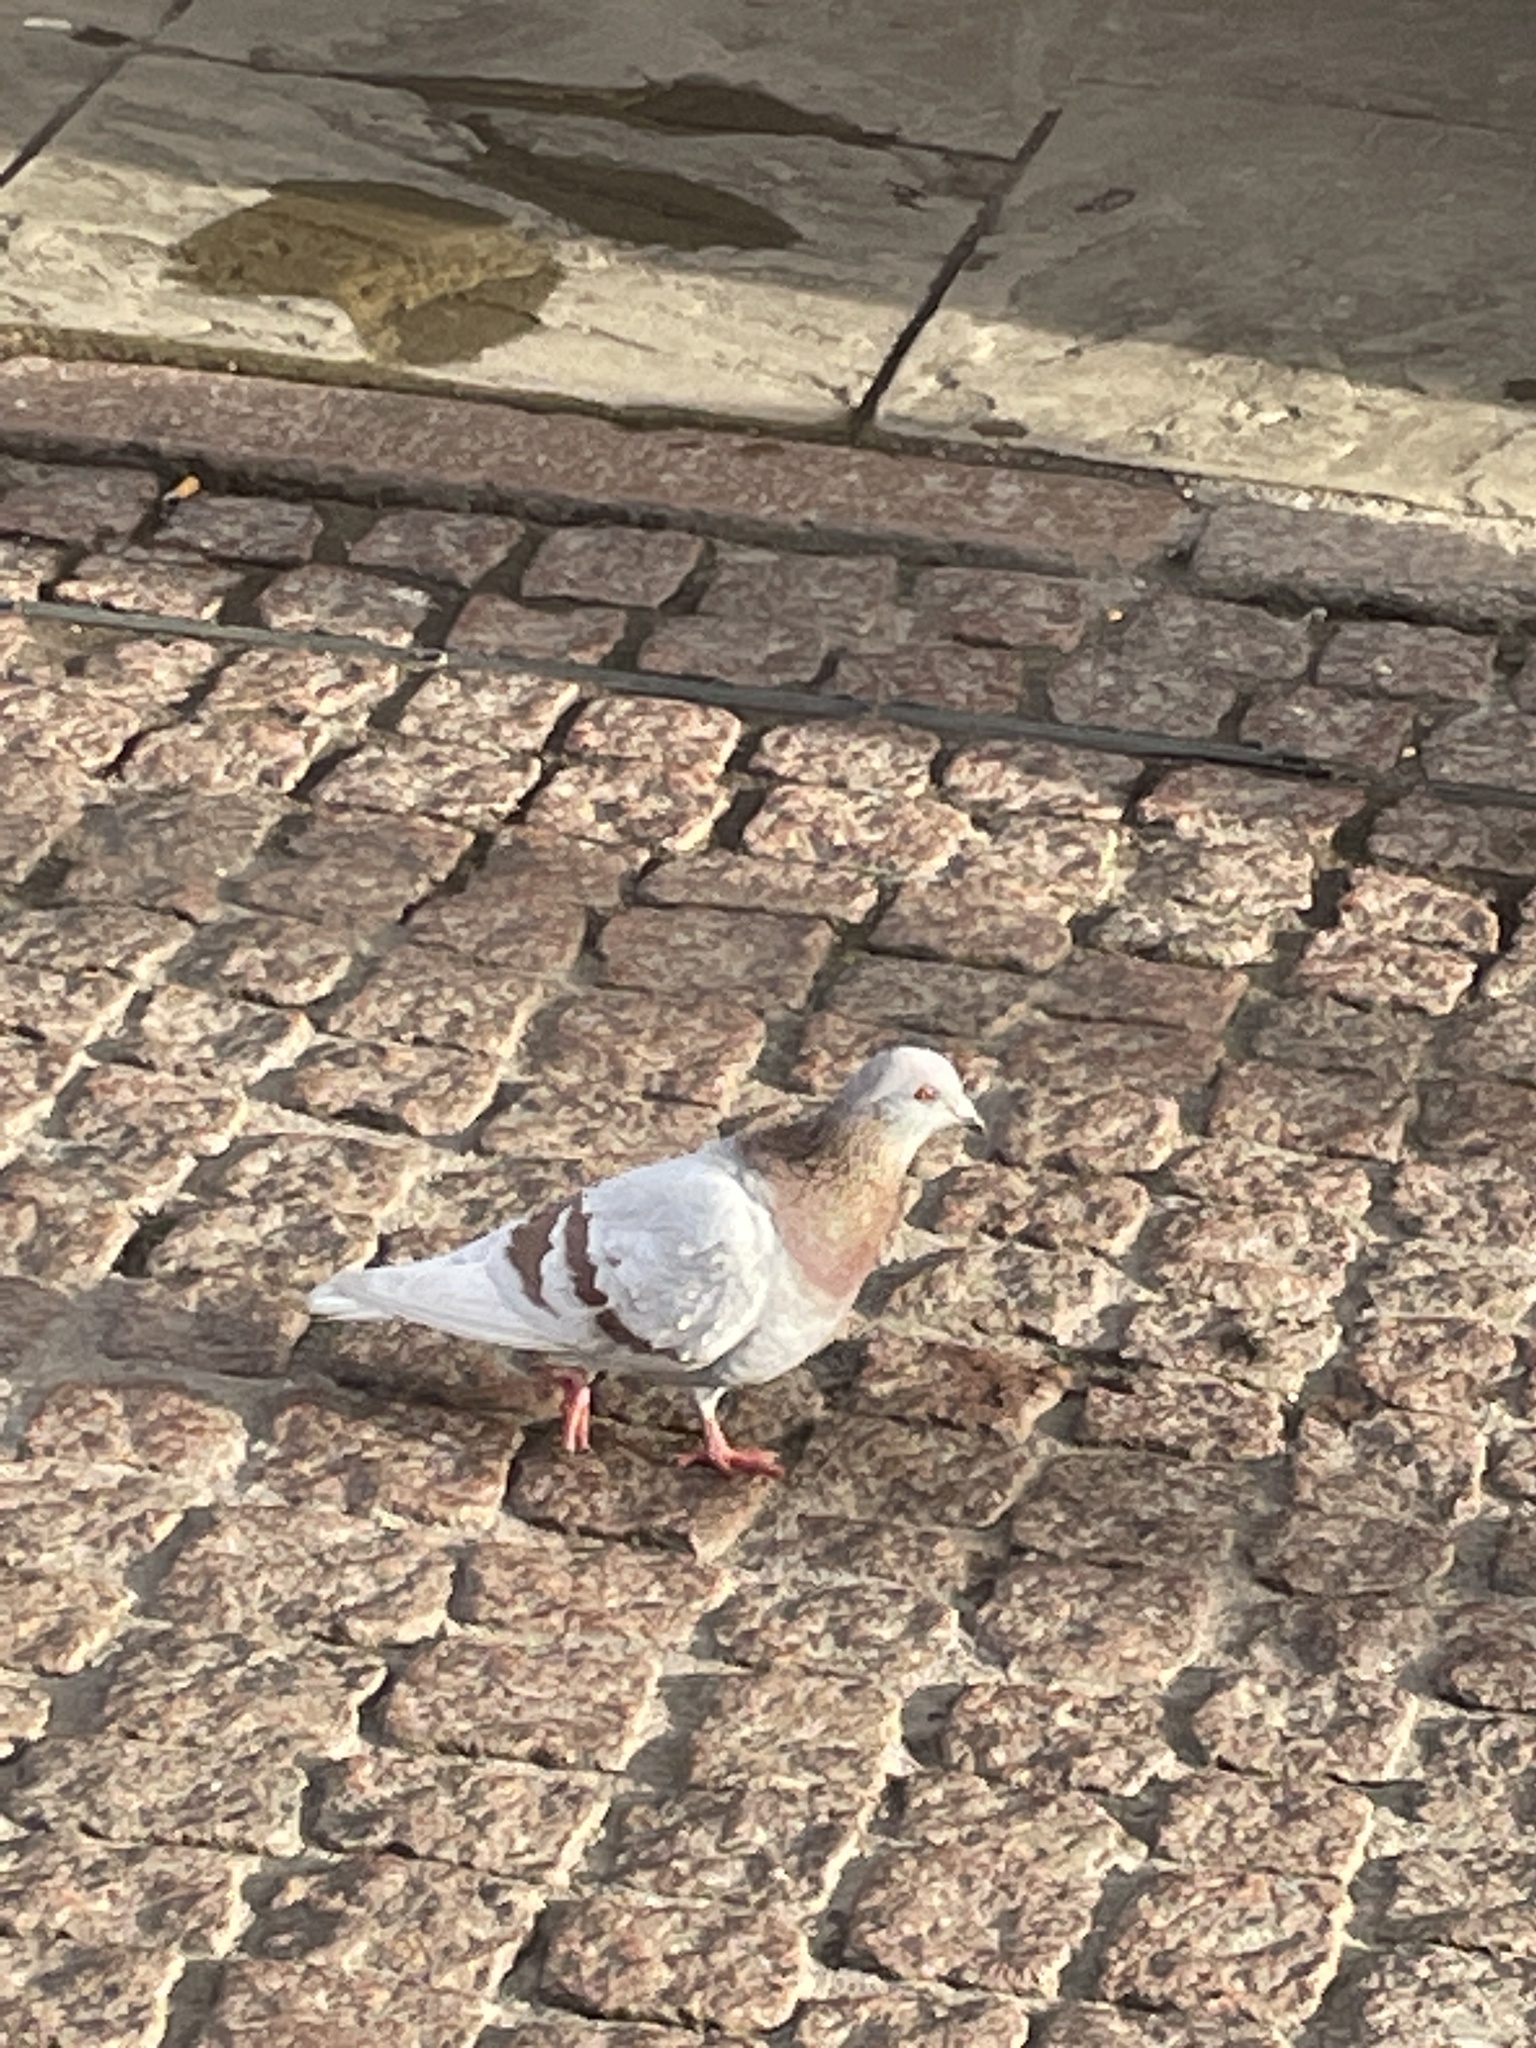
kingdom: Animalia
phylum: Chordata
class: Aves
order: Columbiformes
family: Columbidae
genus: Columba
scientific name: Columba livia
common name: Rock pigeon
